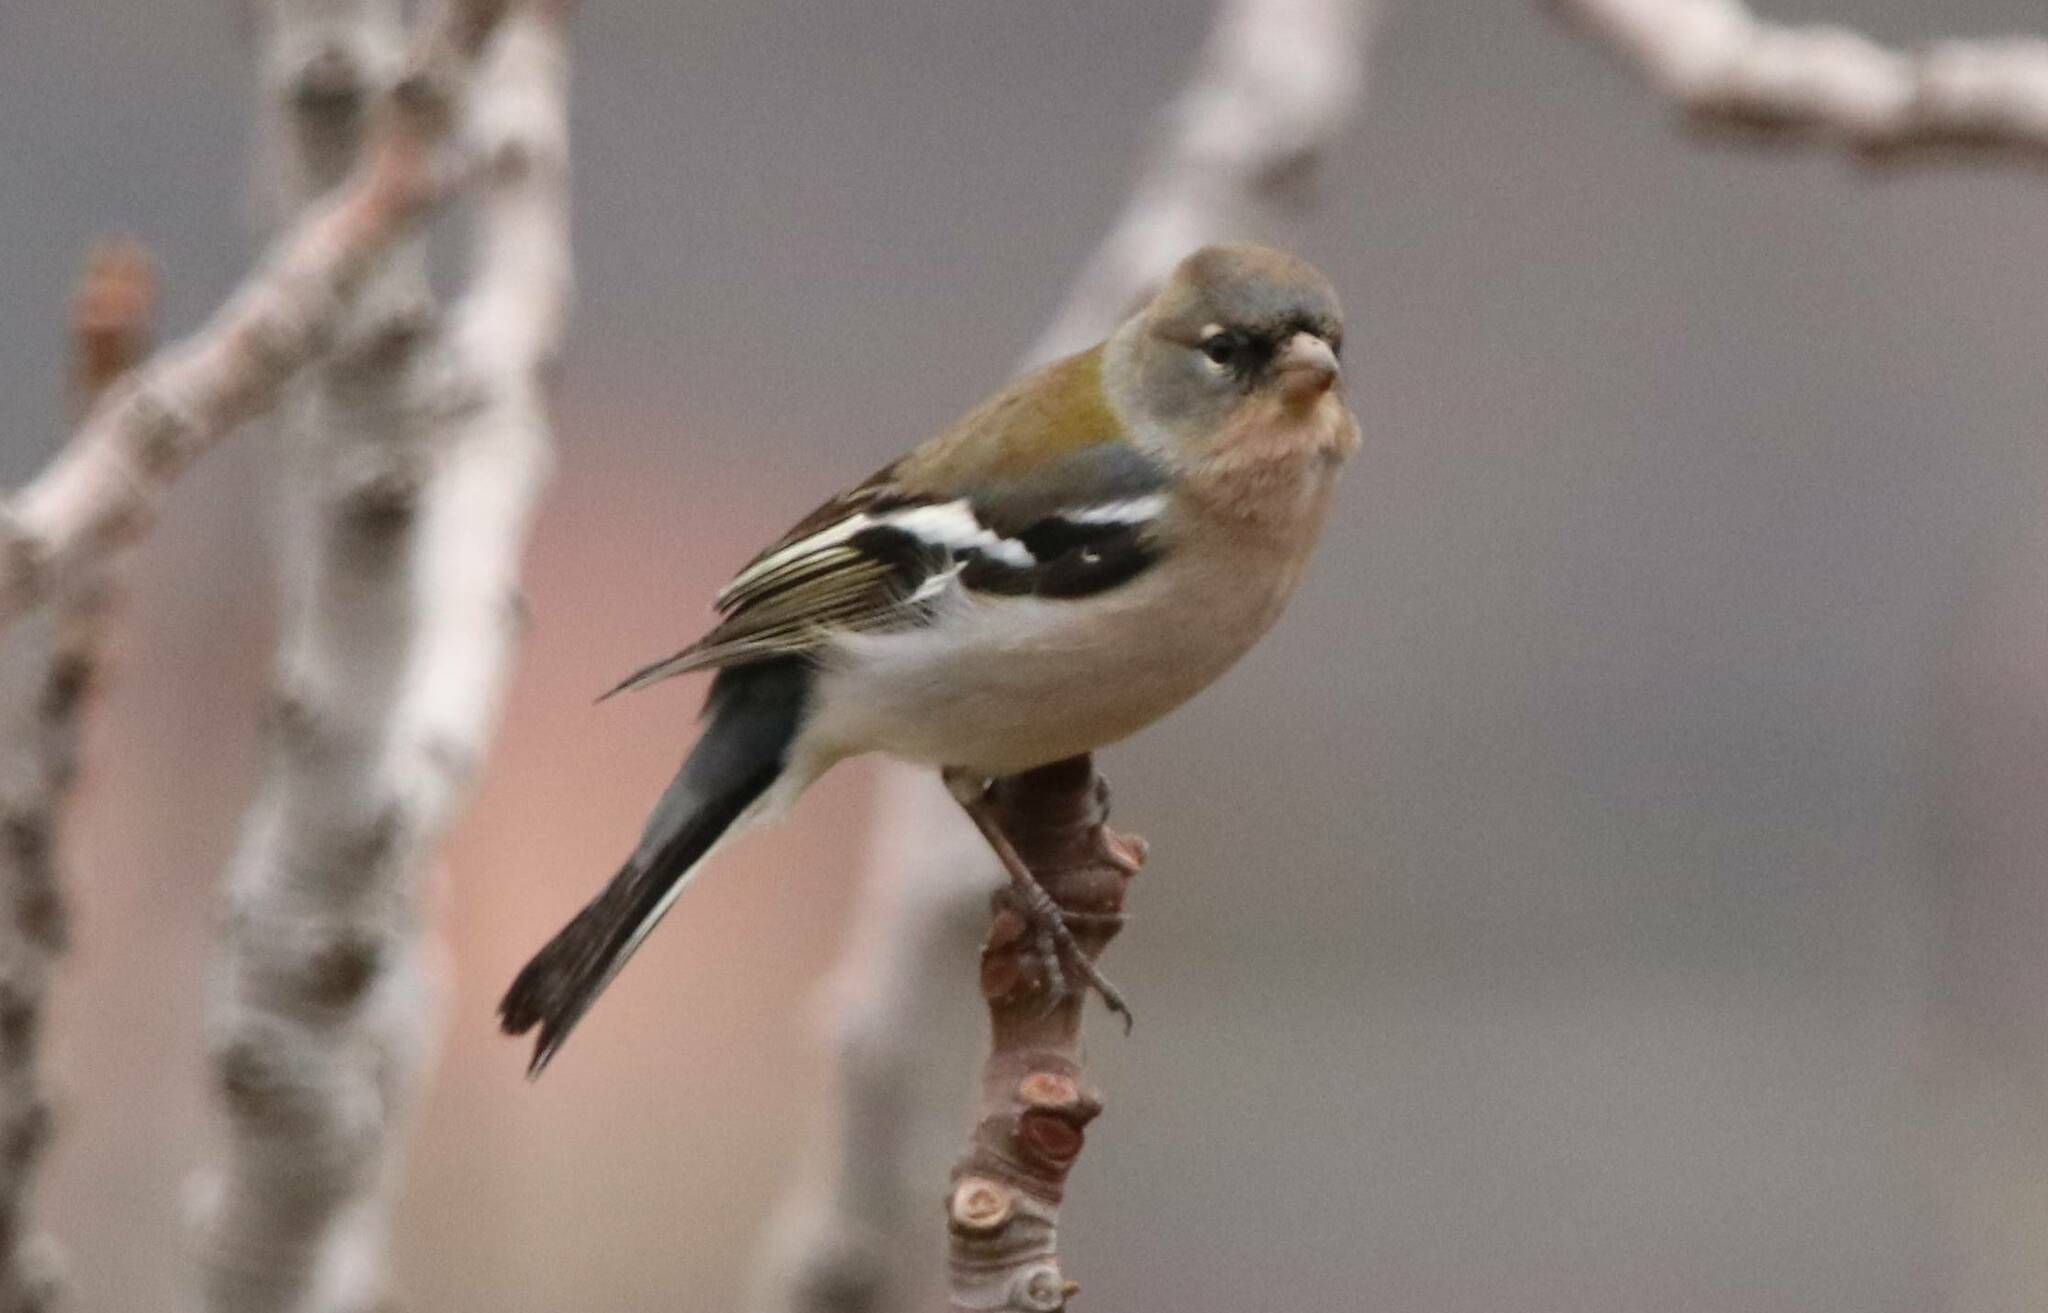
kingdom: Animalia
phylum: Chordata
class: Aves
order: Passeriformes
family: Fringillidae
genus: Fringilla
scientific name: Fringilla spodiogenys
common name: African chaffinch
